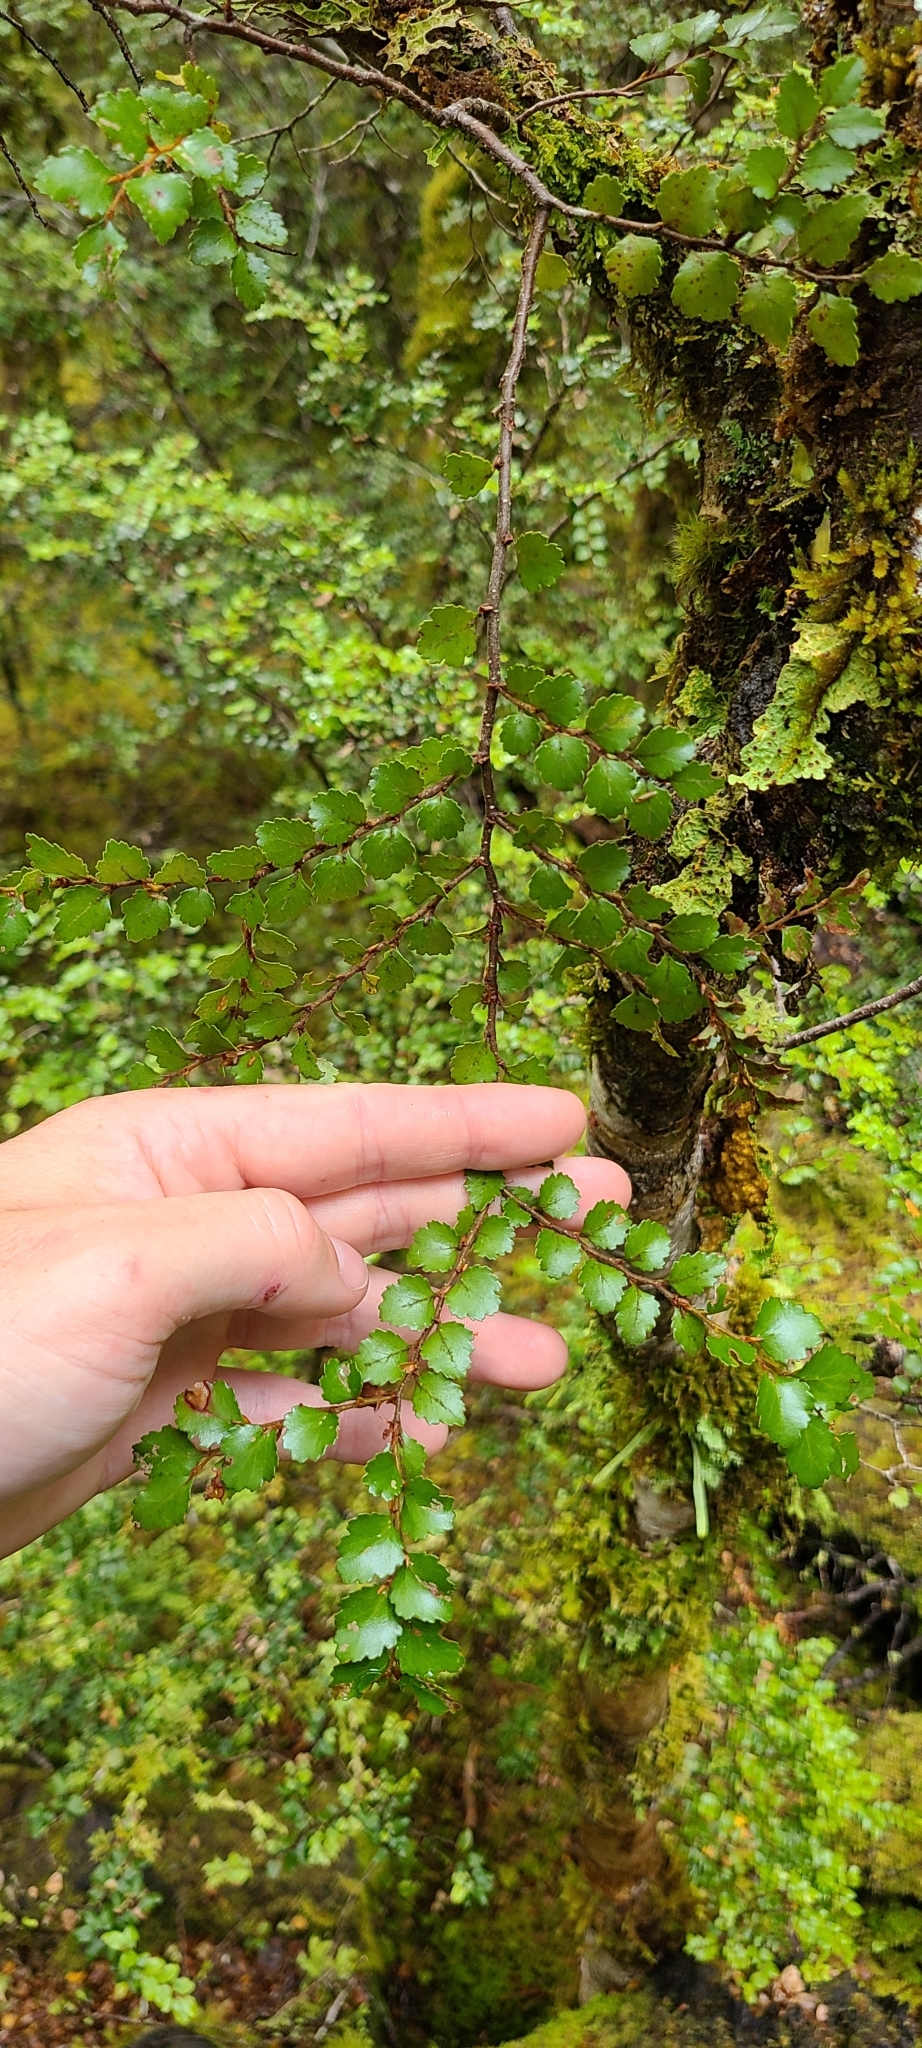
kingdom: Plantae
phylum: Tracheophyta
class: Magnoliopsida
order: Fagales
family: Nothofagaceae
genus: Nothofagus
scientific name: Nothofagus menziesii
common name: Silver beech
